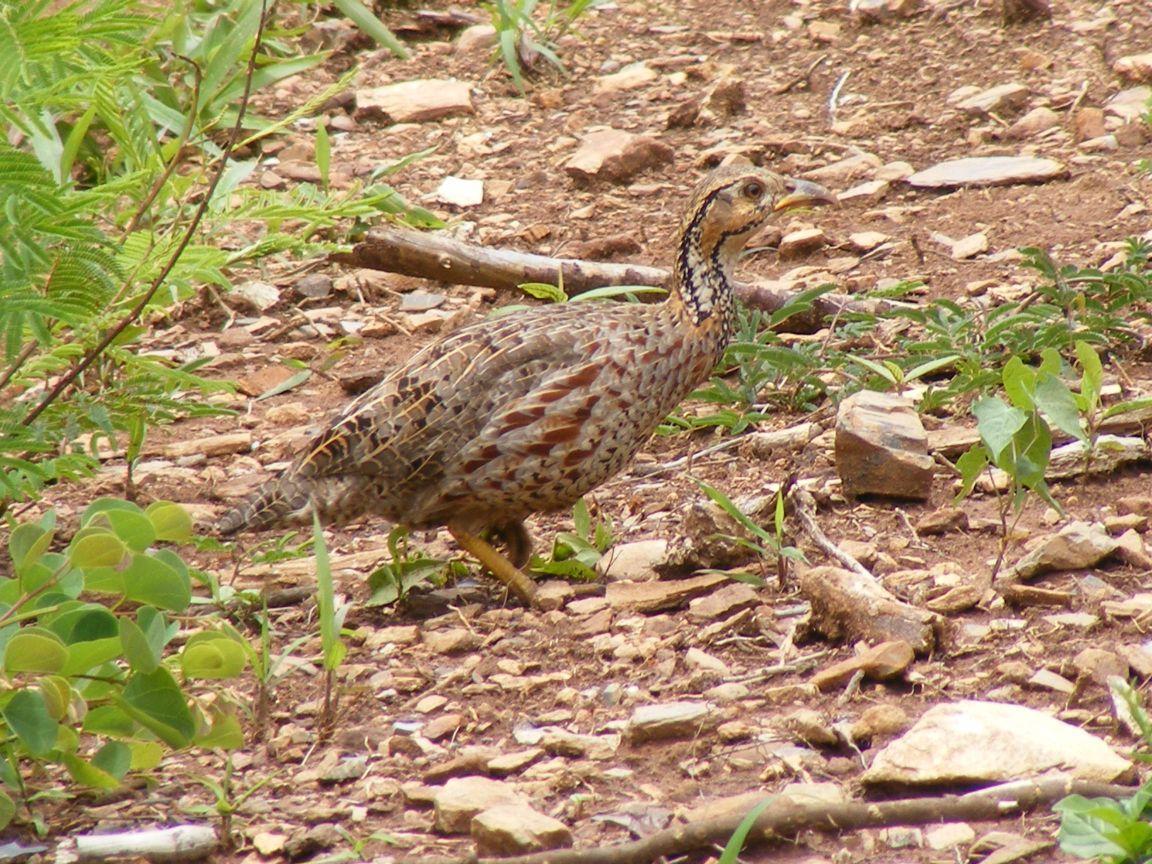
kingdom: Animalia
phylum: Chordata
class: Aves
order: Galliformes
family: Phasianidae
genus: Scleroptila
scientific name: Scleroptila shelleyi
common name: Shelley's francolin
